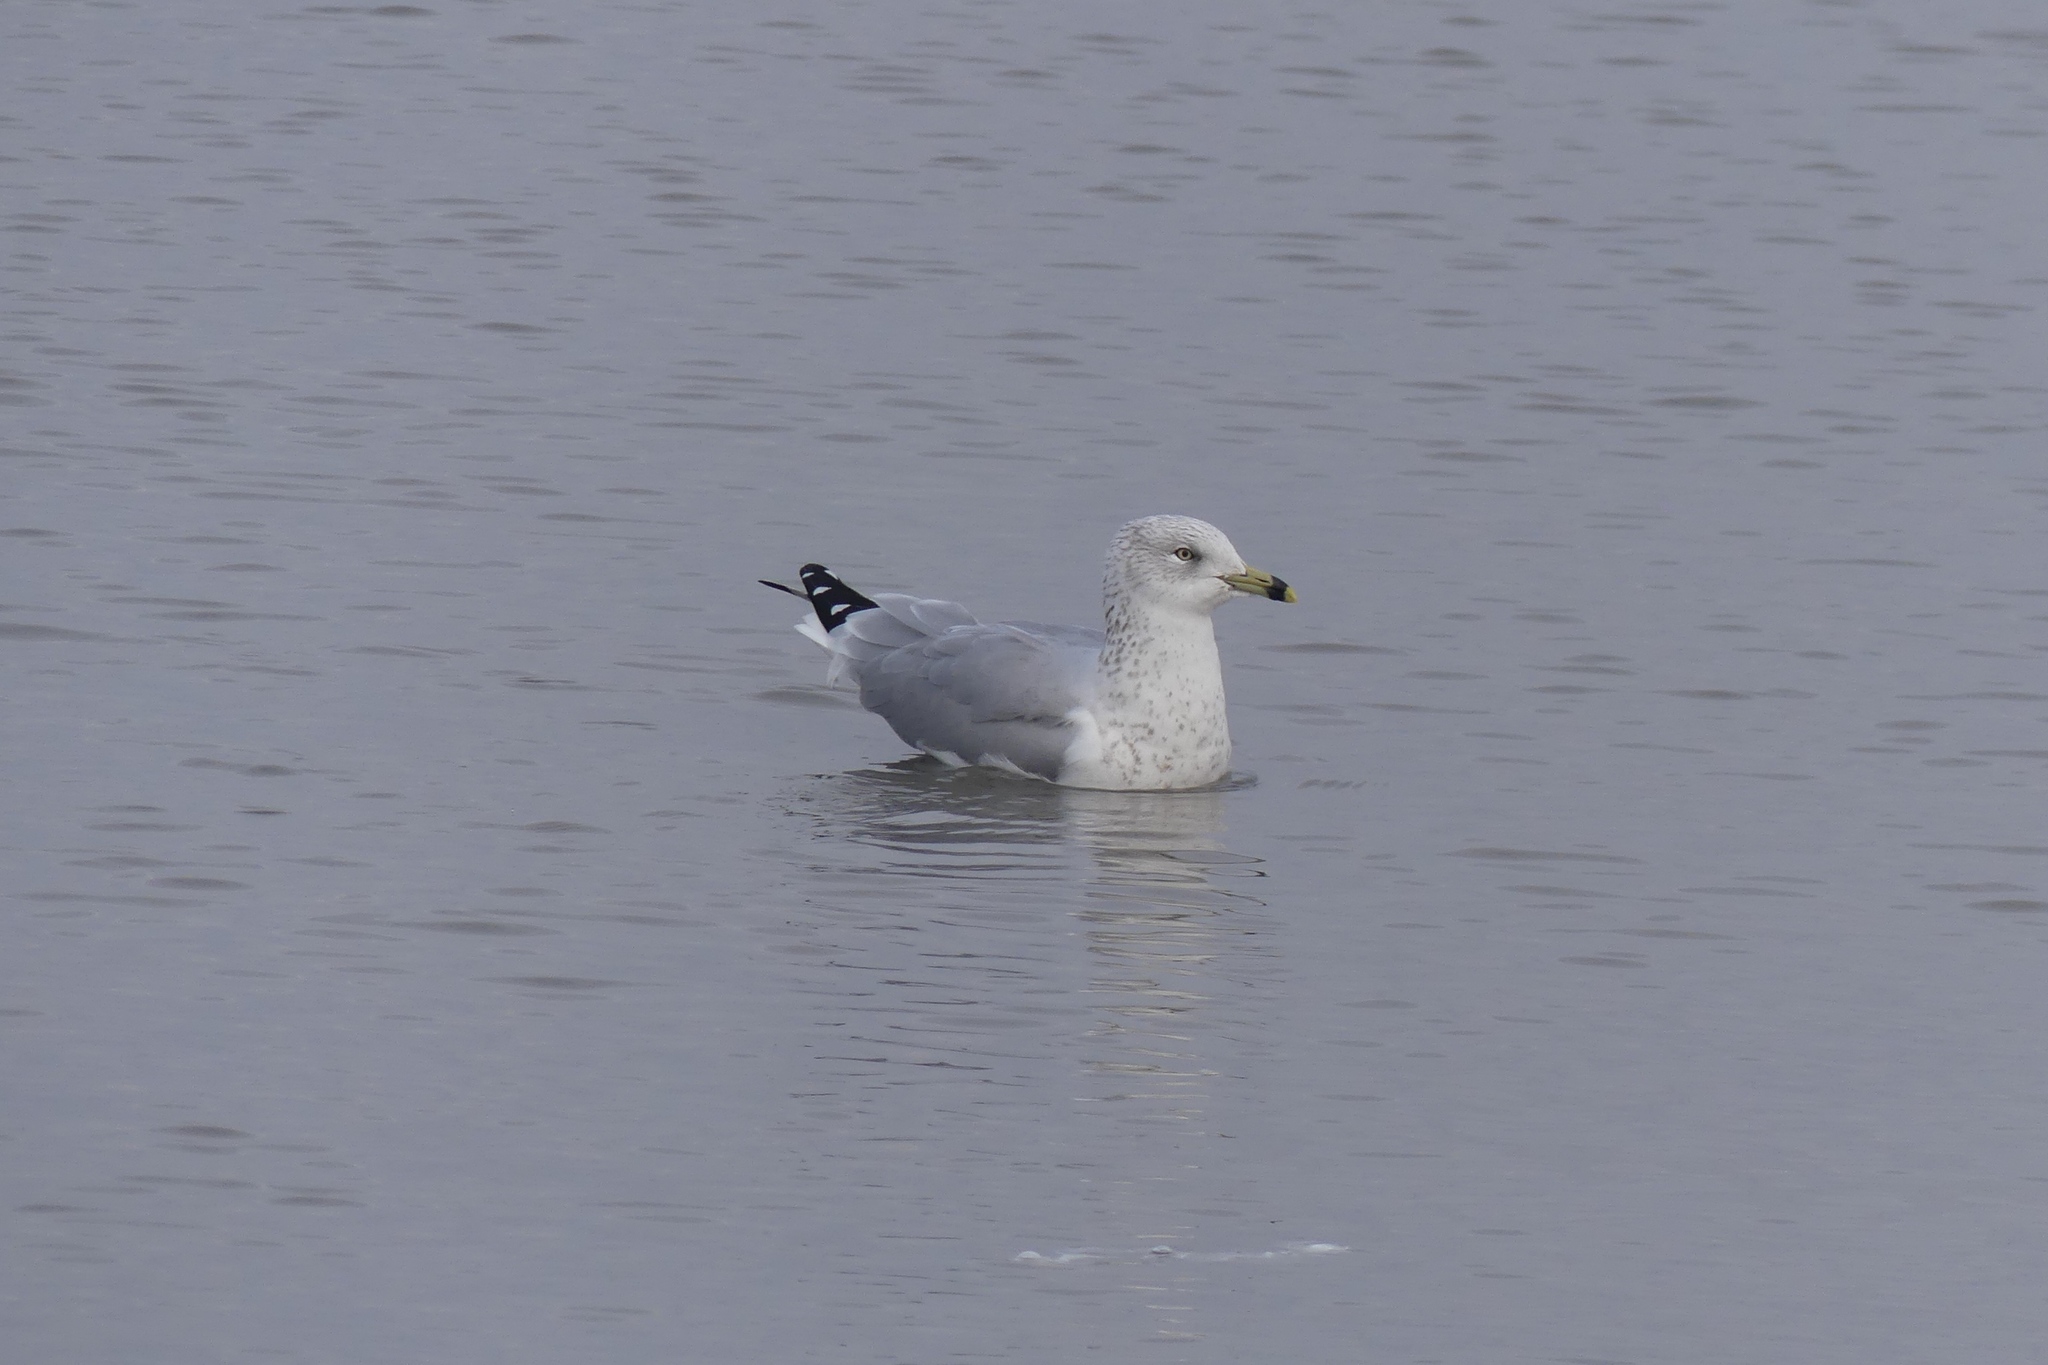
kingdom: Animalia
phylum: Chordata
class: Aves
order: Charadriiformes
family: Laridae
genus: Larus
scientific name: Larus delawarensis
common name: Ring-billed gull
